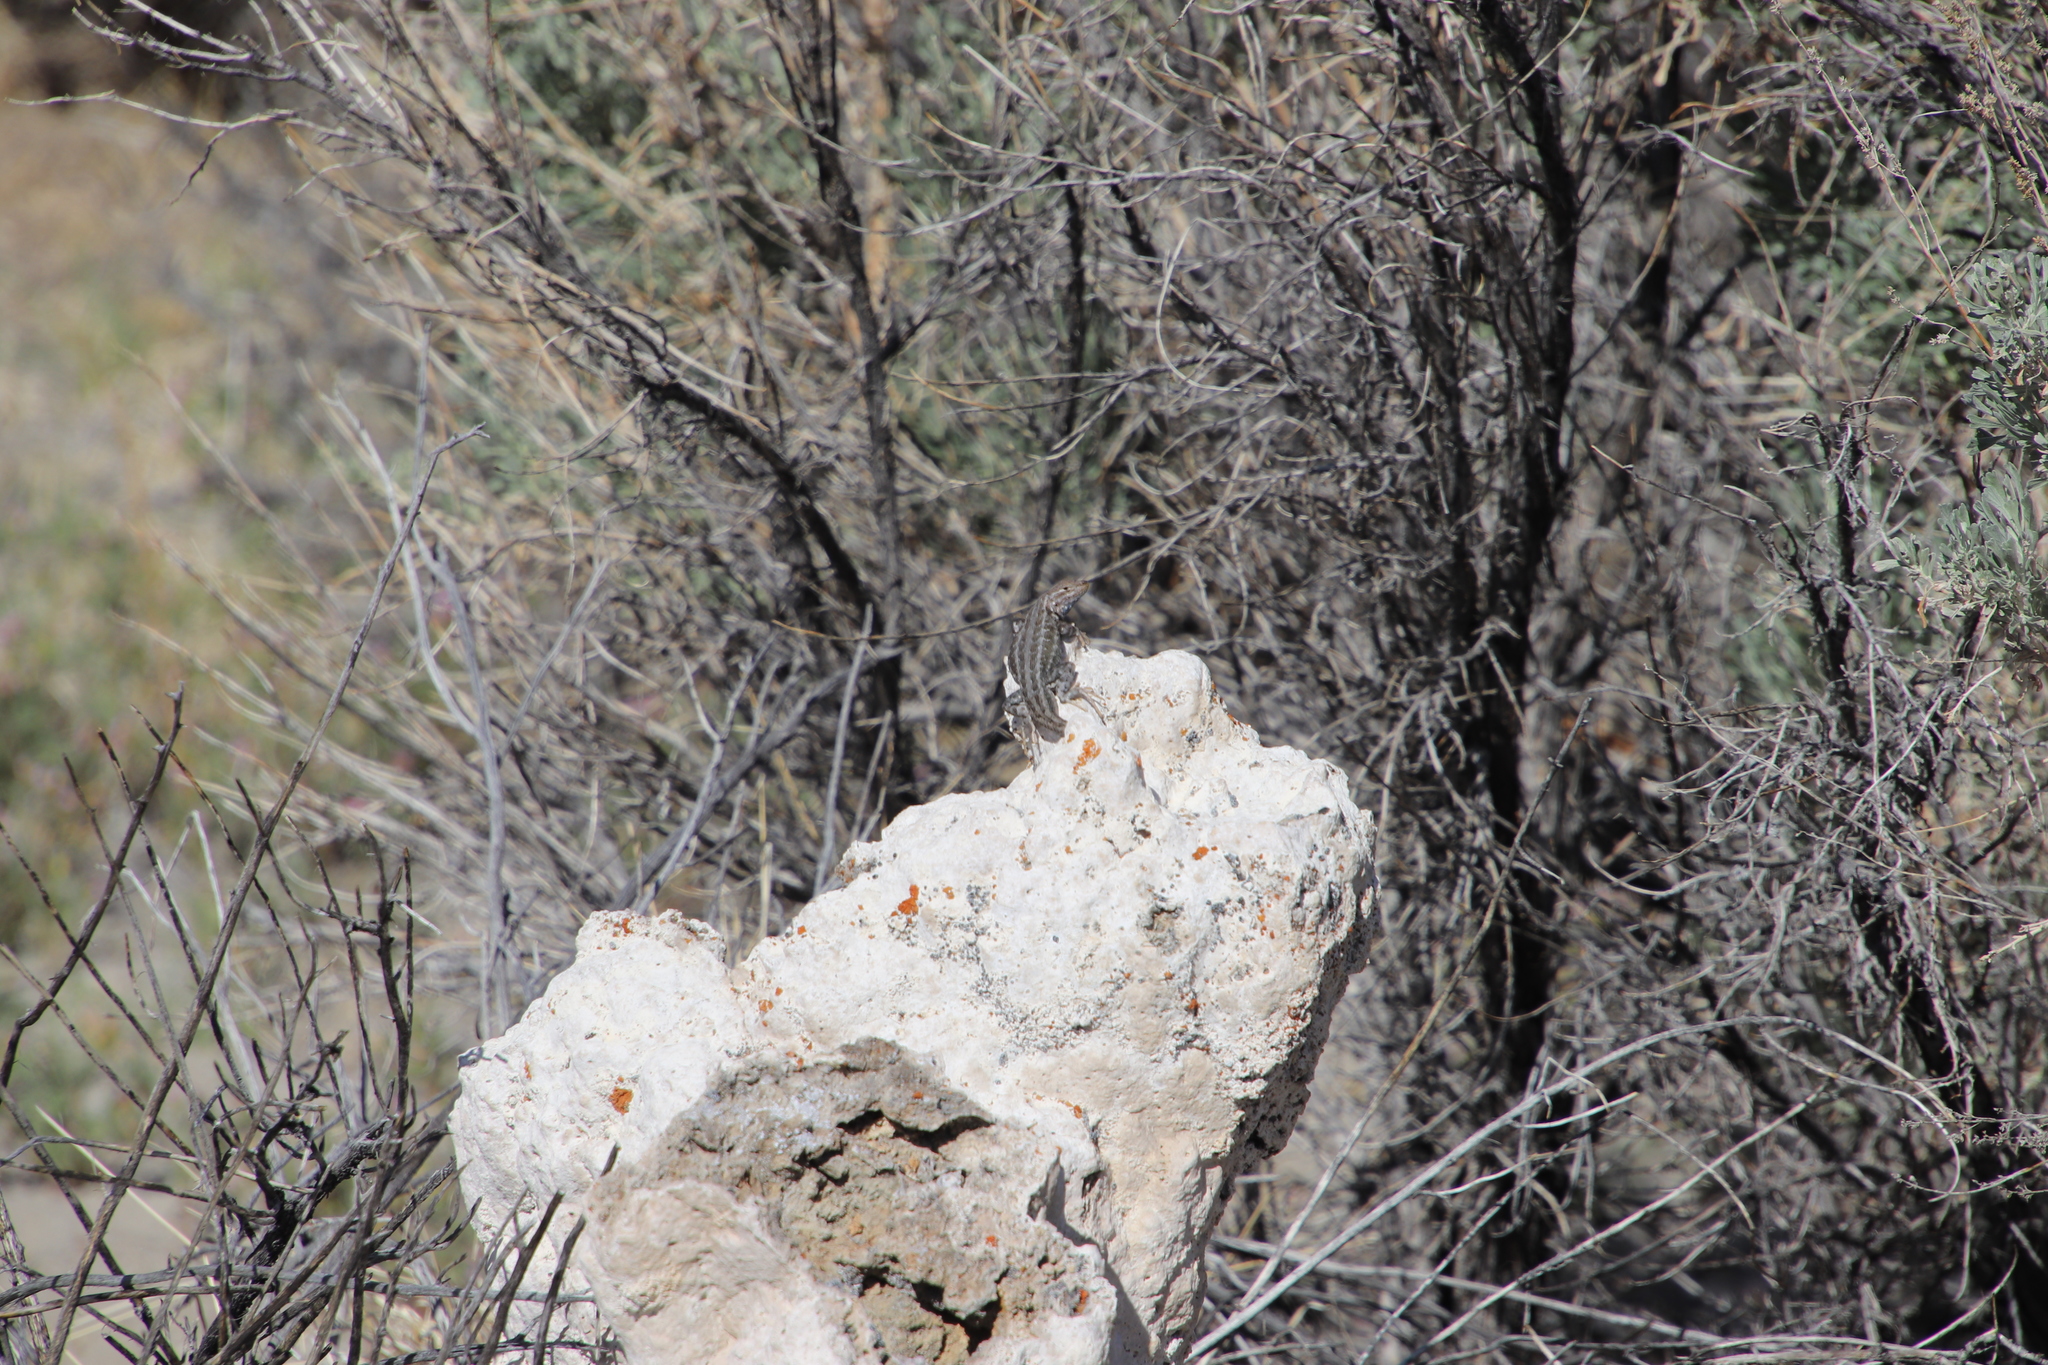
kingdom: Animalia
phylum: Chordata
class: Squamata
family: Phrynosomatidae
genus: Sceloporus
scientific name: Sceloporus graciosus
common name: Sagebrush lizard
